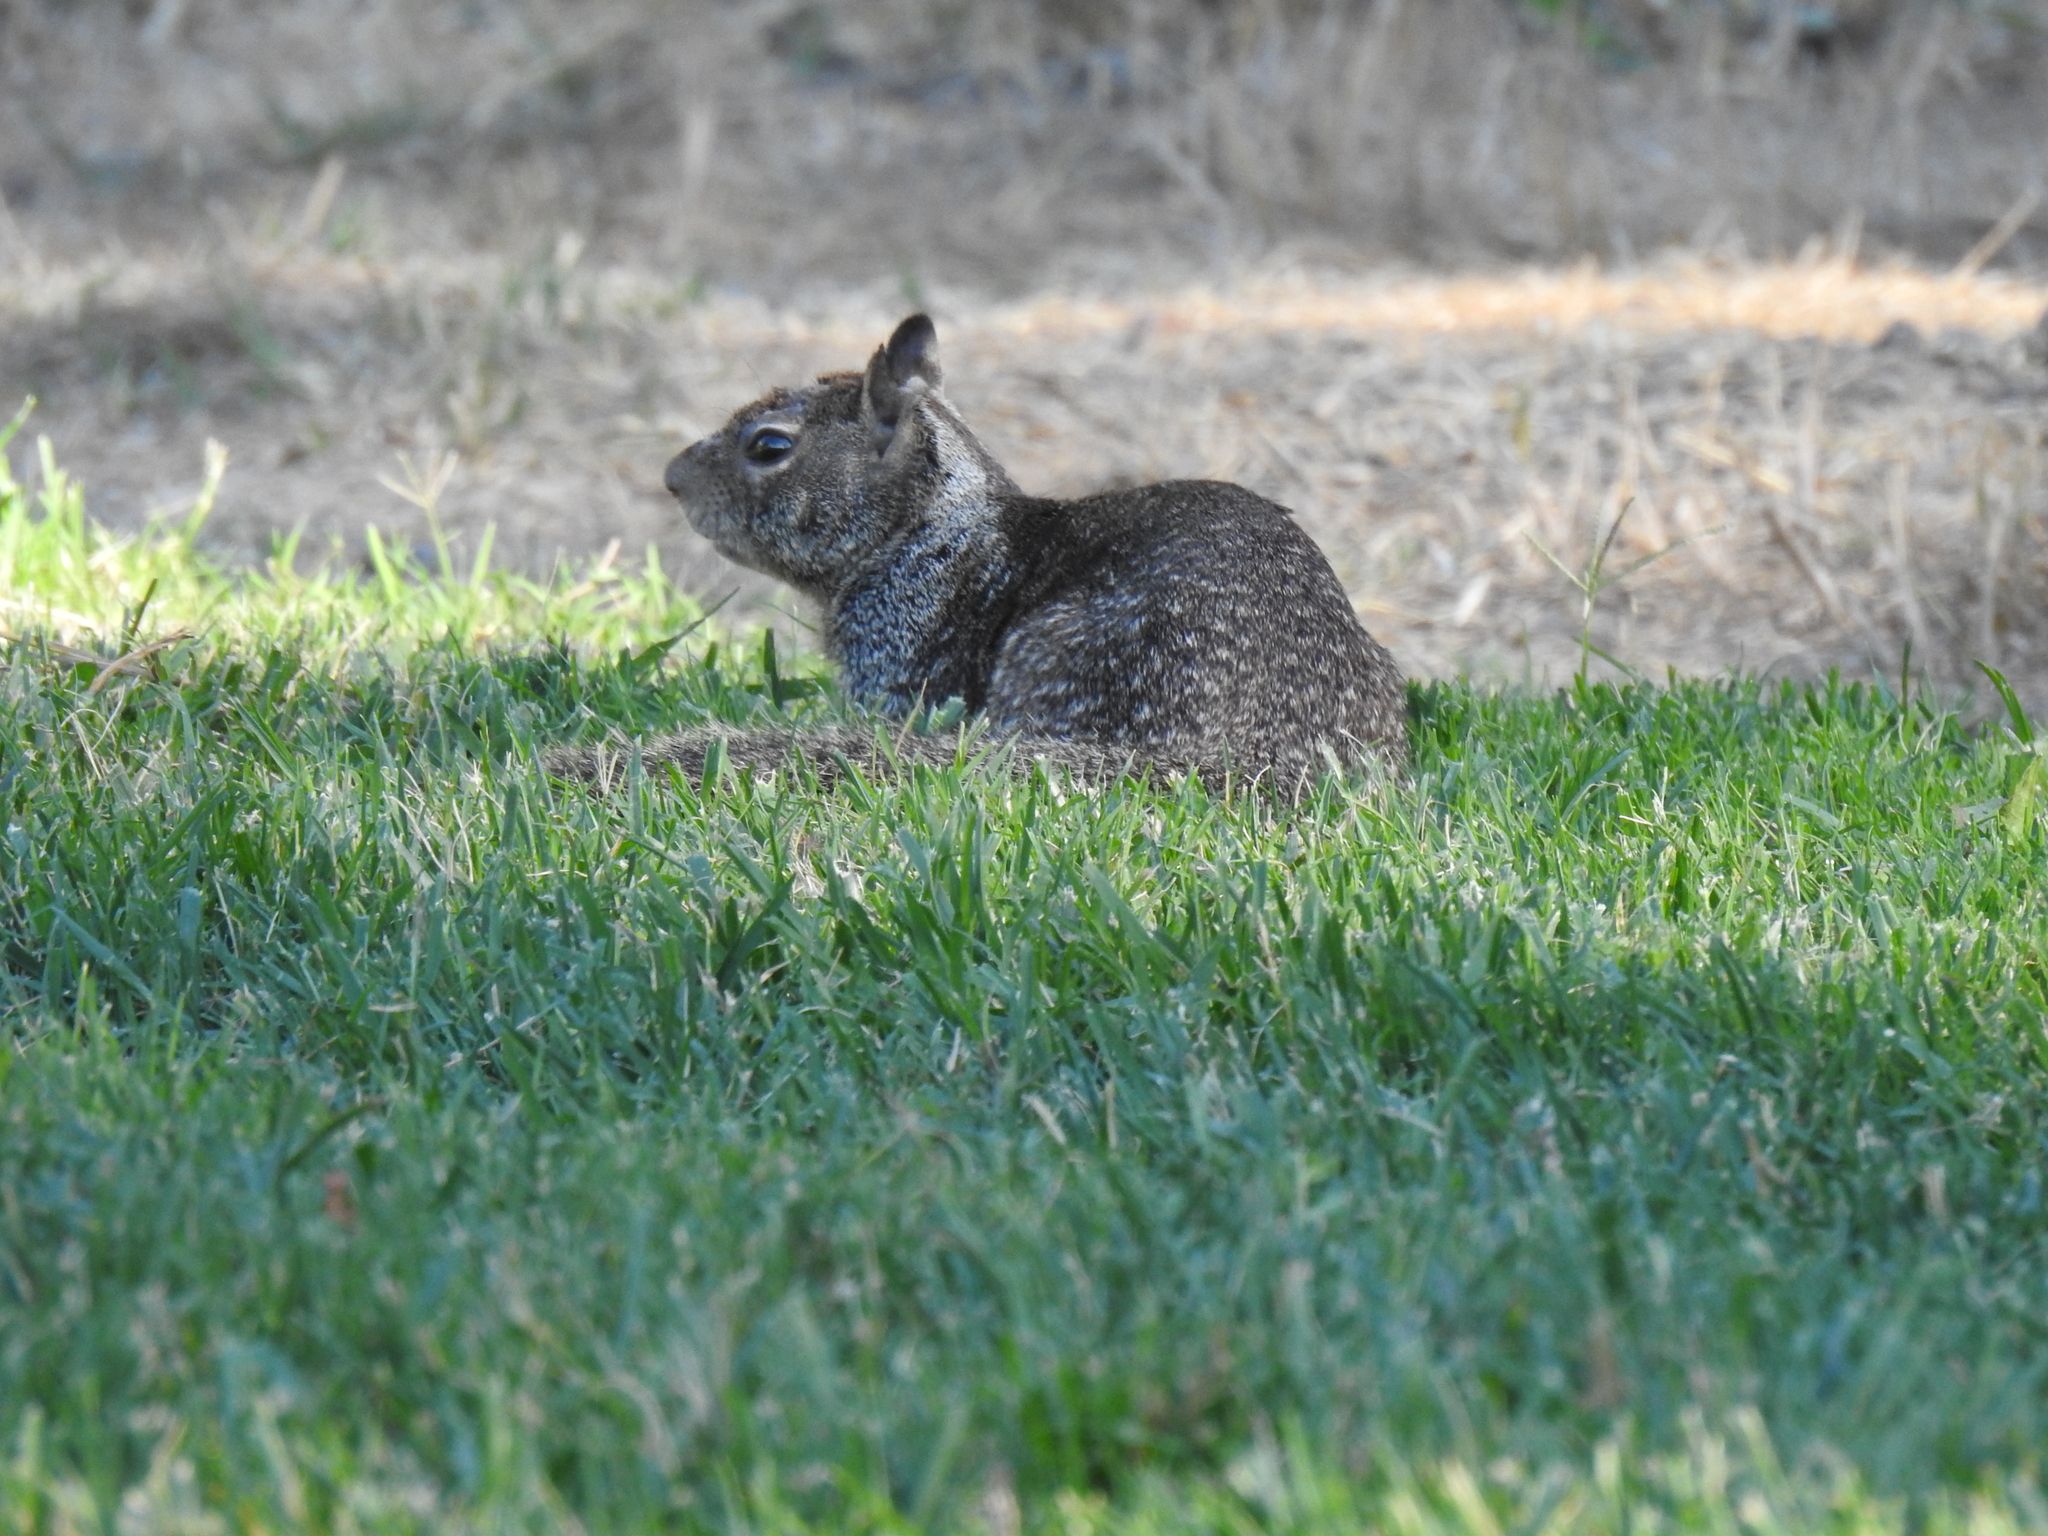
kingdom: Animalia
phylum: Chordata
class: Mammalia
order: Rodentia
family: Sciuridae
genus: Otospermophilus
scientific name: Otospermophilus beecheyi
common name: California ground squirrel
